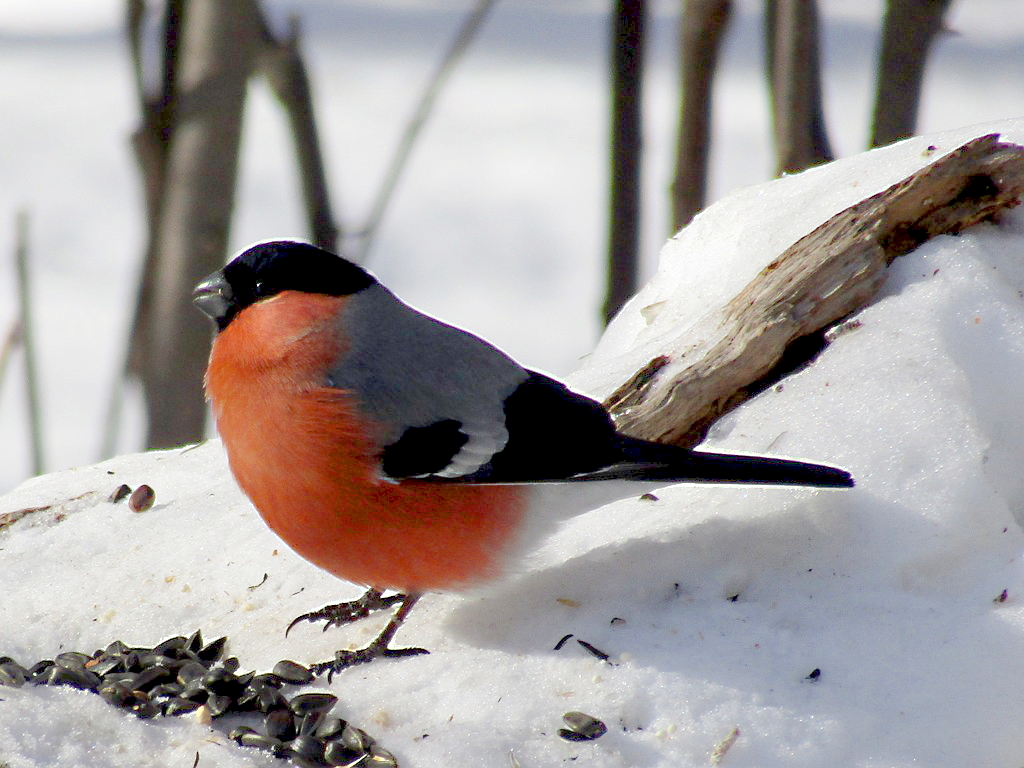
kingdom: Animalia
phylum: Chordata
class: Aves
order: Passeriformes
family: Fringillidae
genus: Pyrrhula
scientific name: Pyrrhula pyrrhula
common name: Eurasian bullfinch
